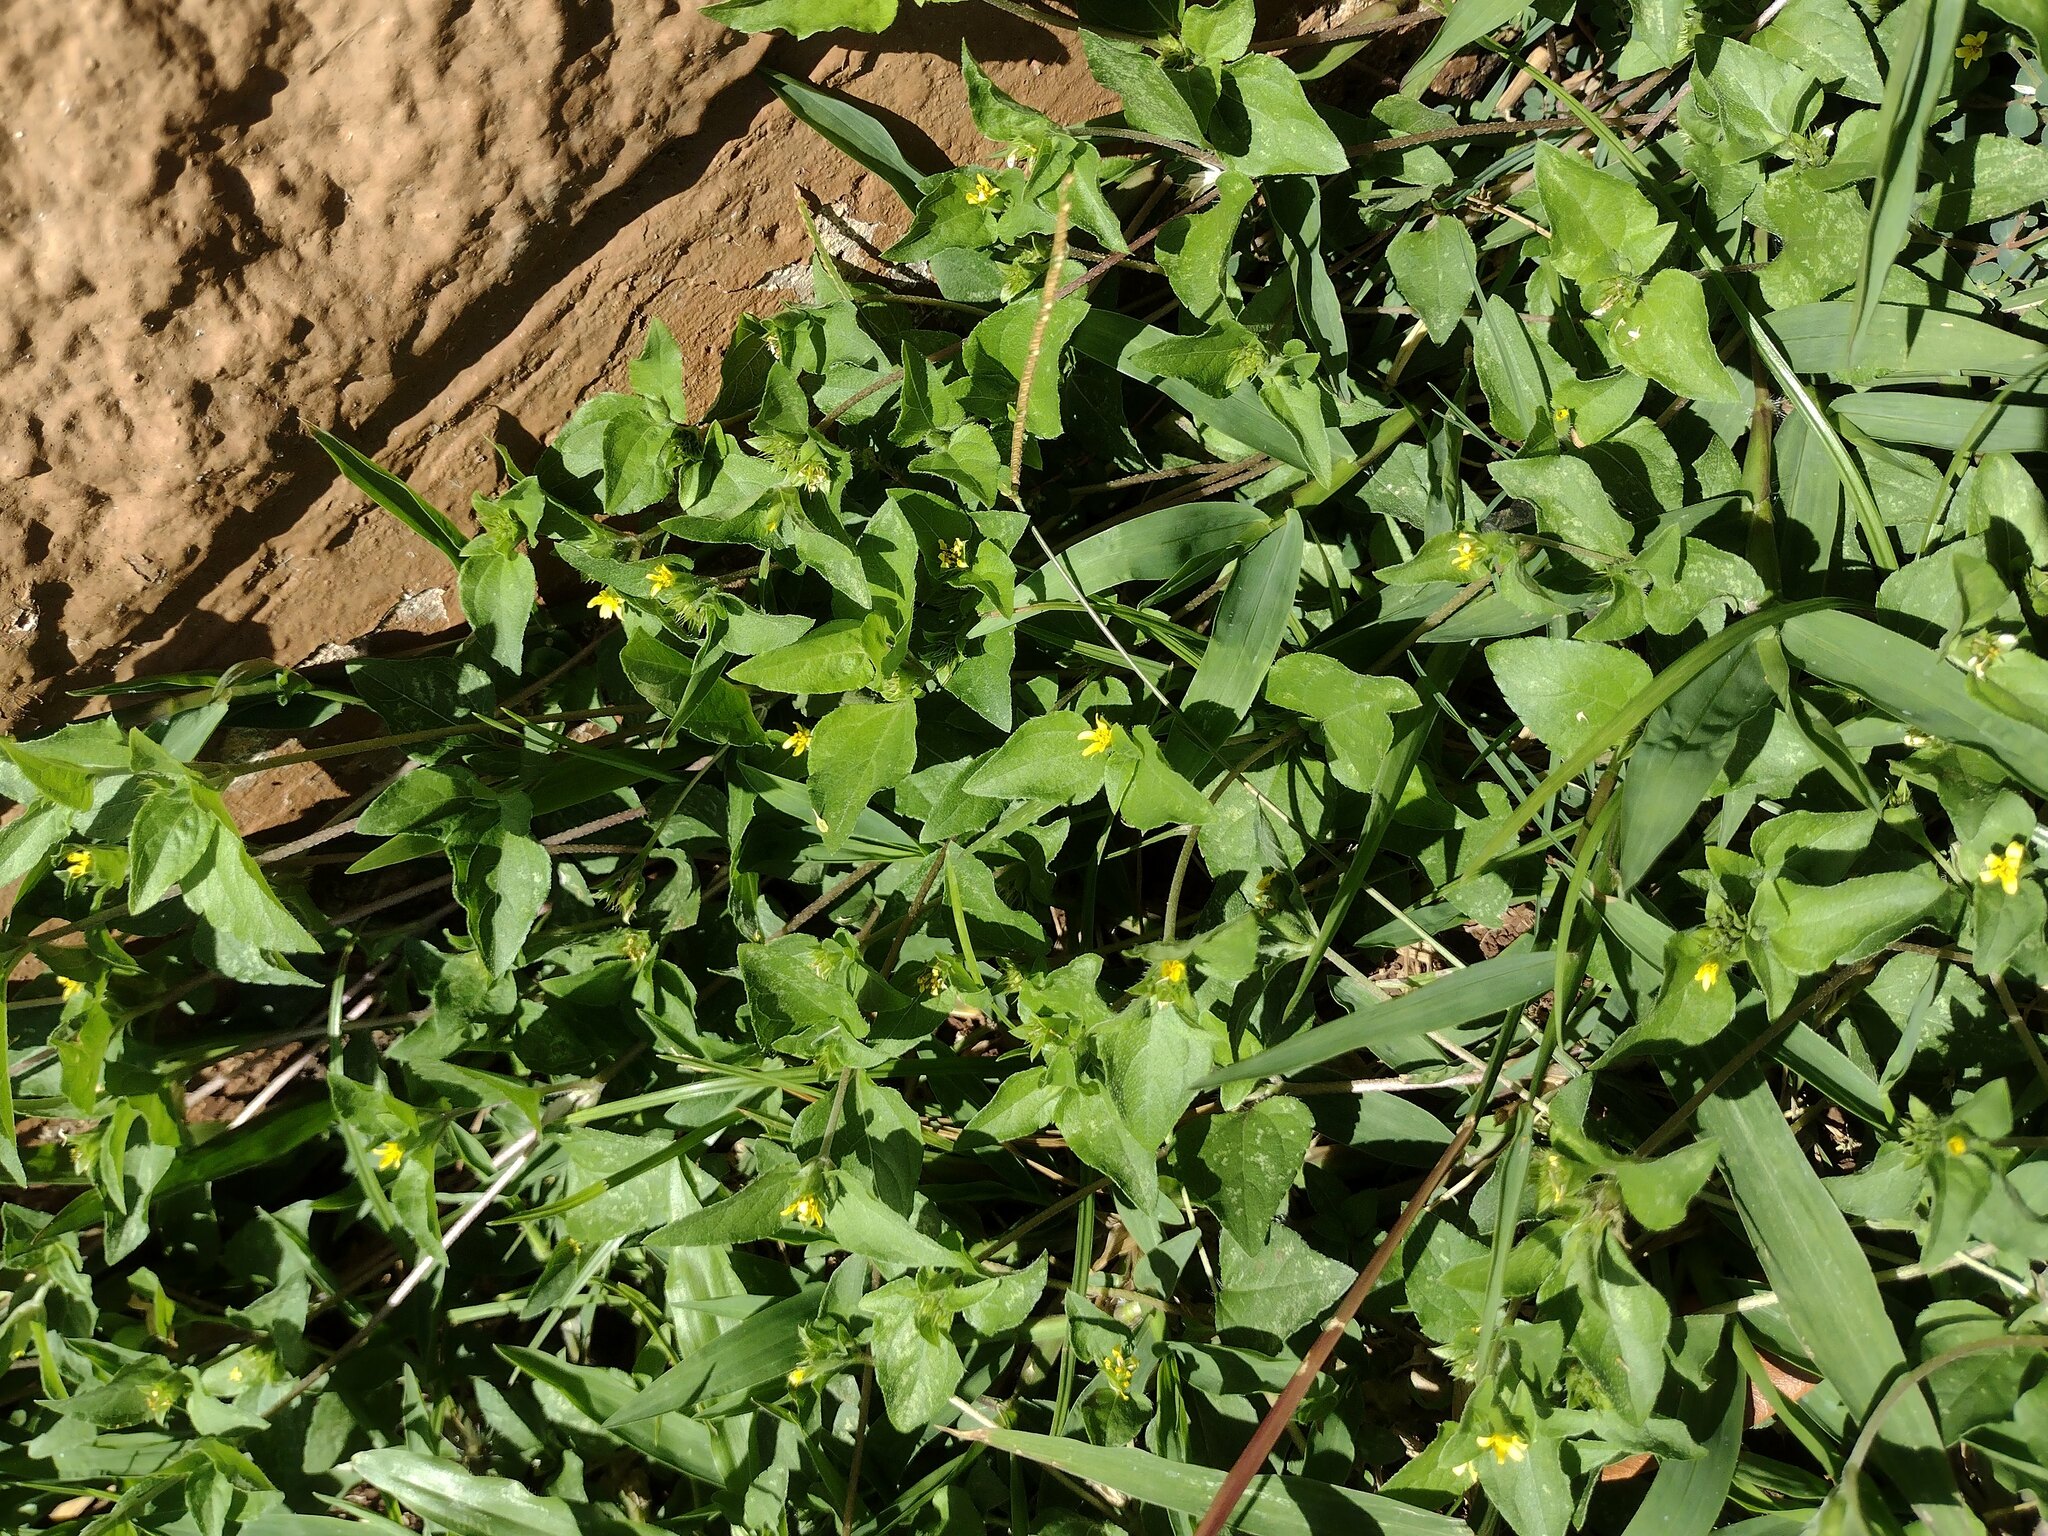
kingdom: Plantae
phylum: Tracheophyta
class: Magnoliopsida
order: Asterales
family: Asteraceae
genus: Calyptocarpus
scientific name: Calyptocarpus vialis
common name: Straggler daisy
